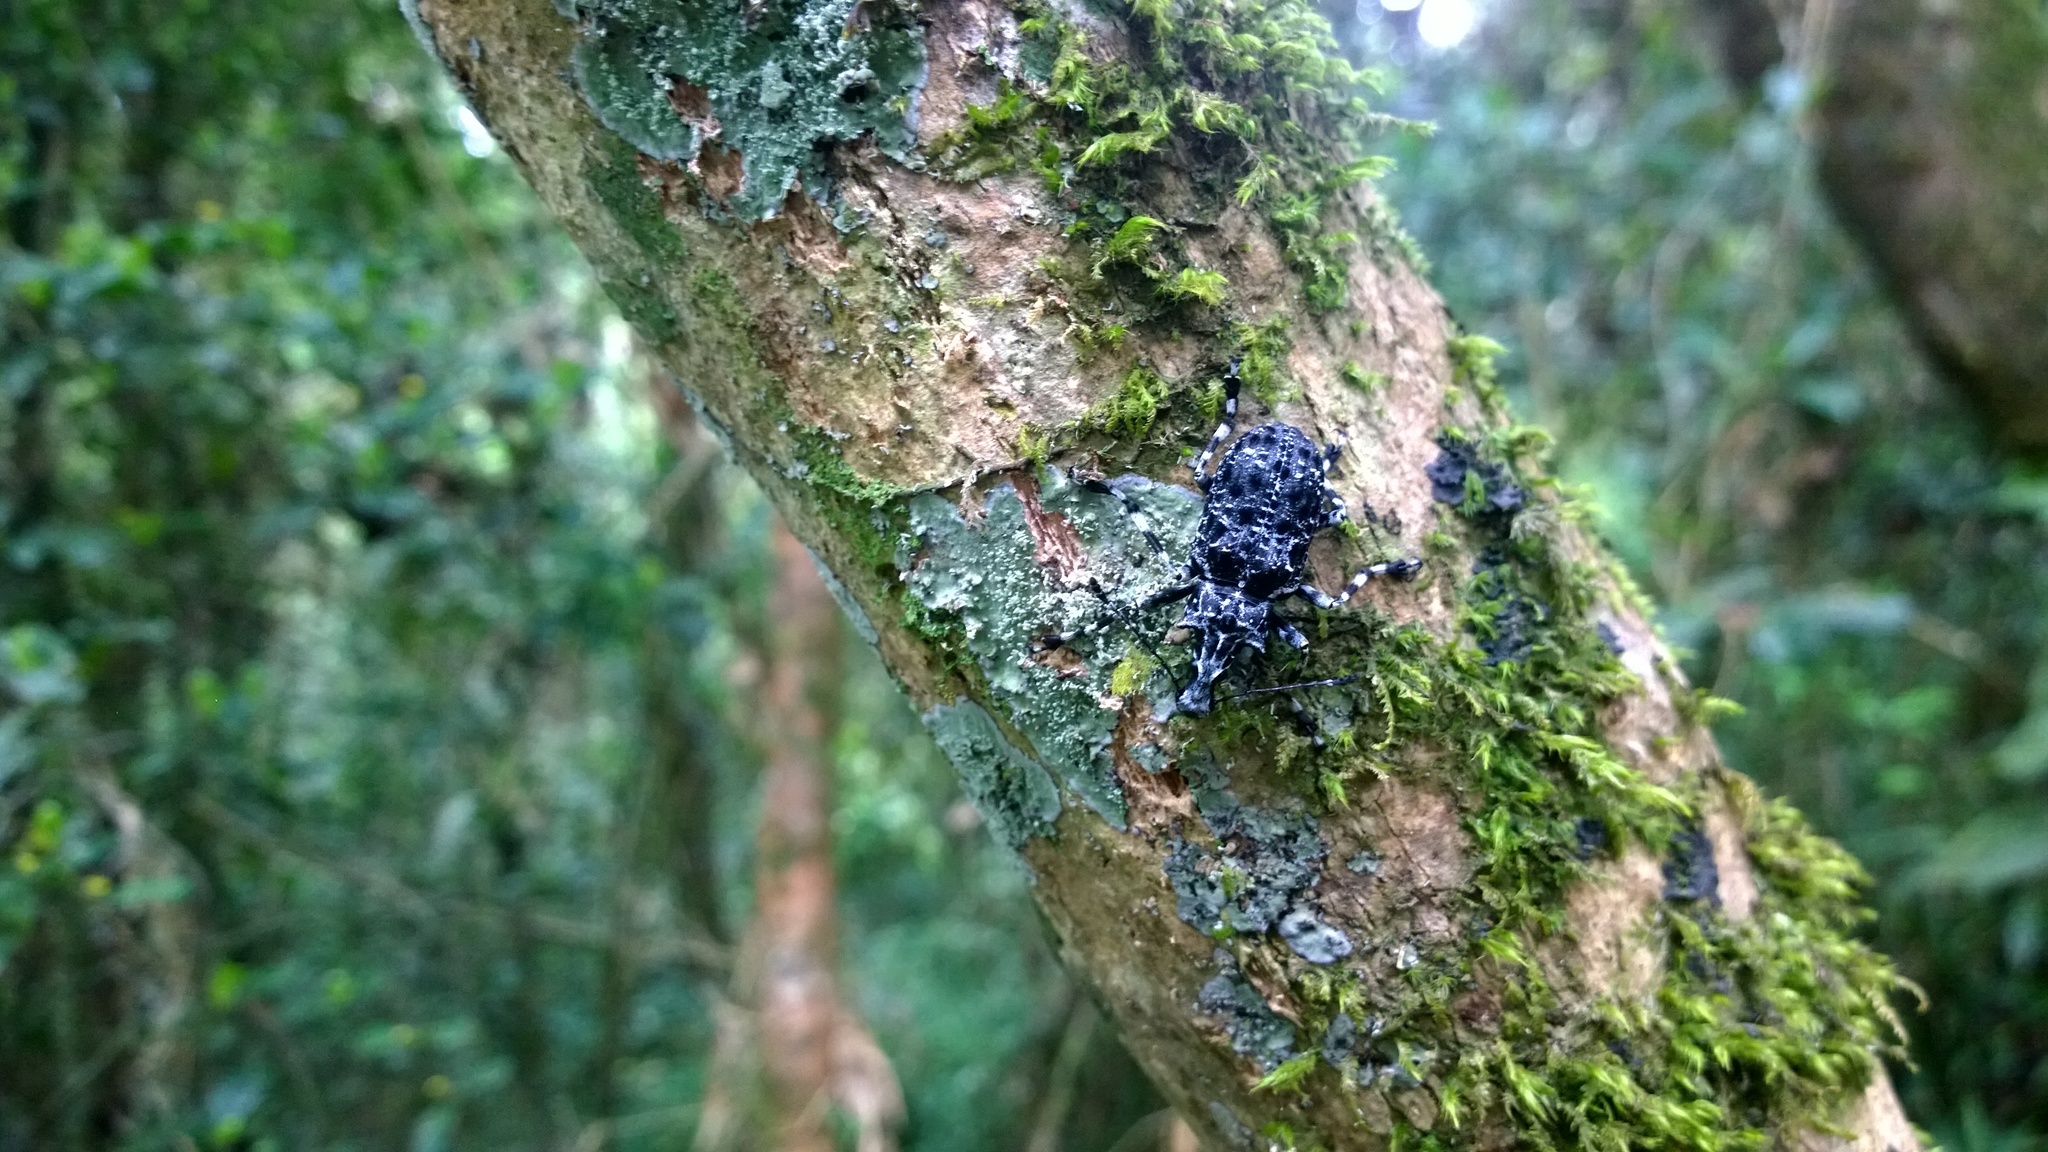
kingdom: Animalia
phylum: Arthropoda
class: Insecta
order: Coleoptera
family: Anthribidae
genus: Tophoderes
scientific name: Tophoderes annulatus
